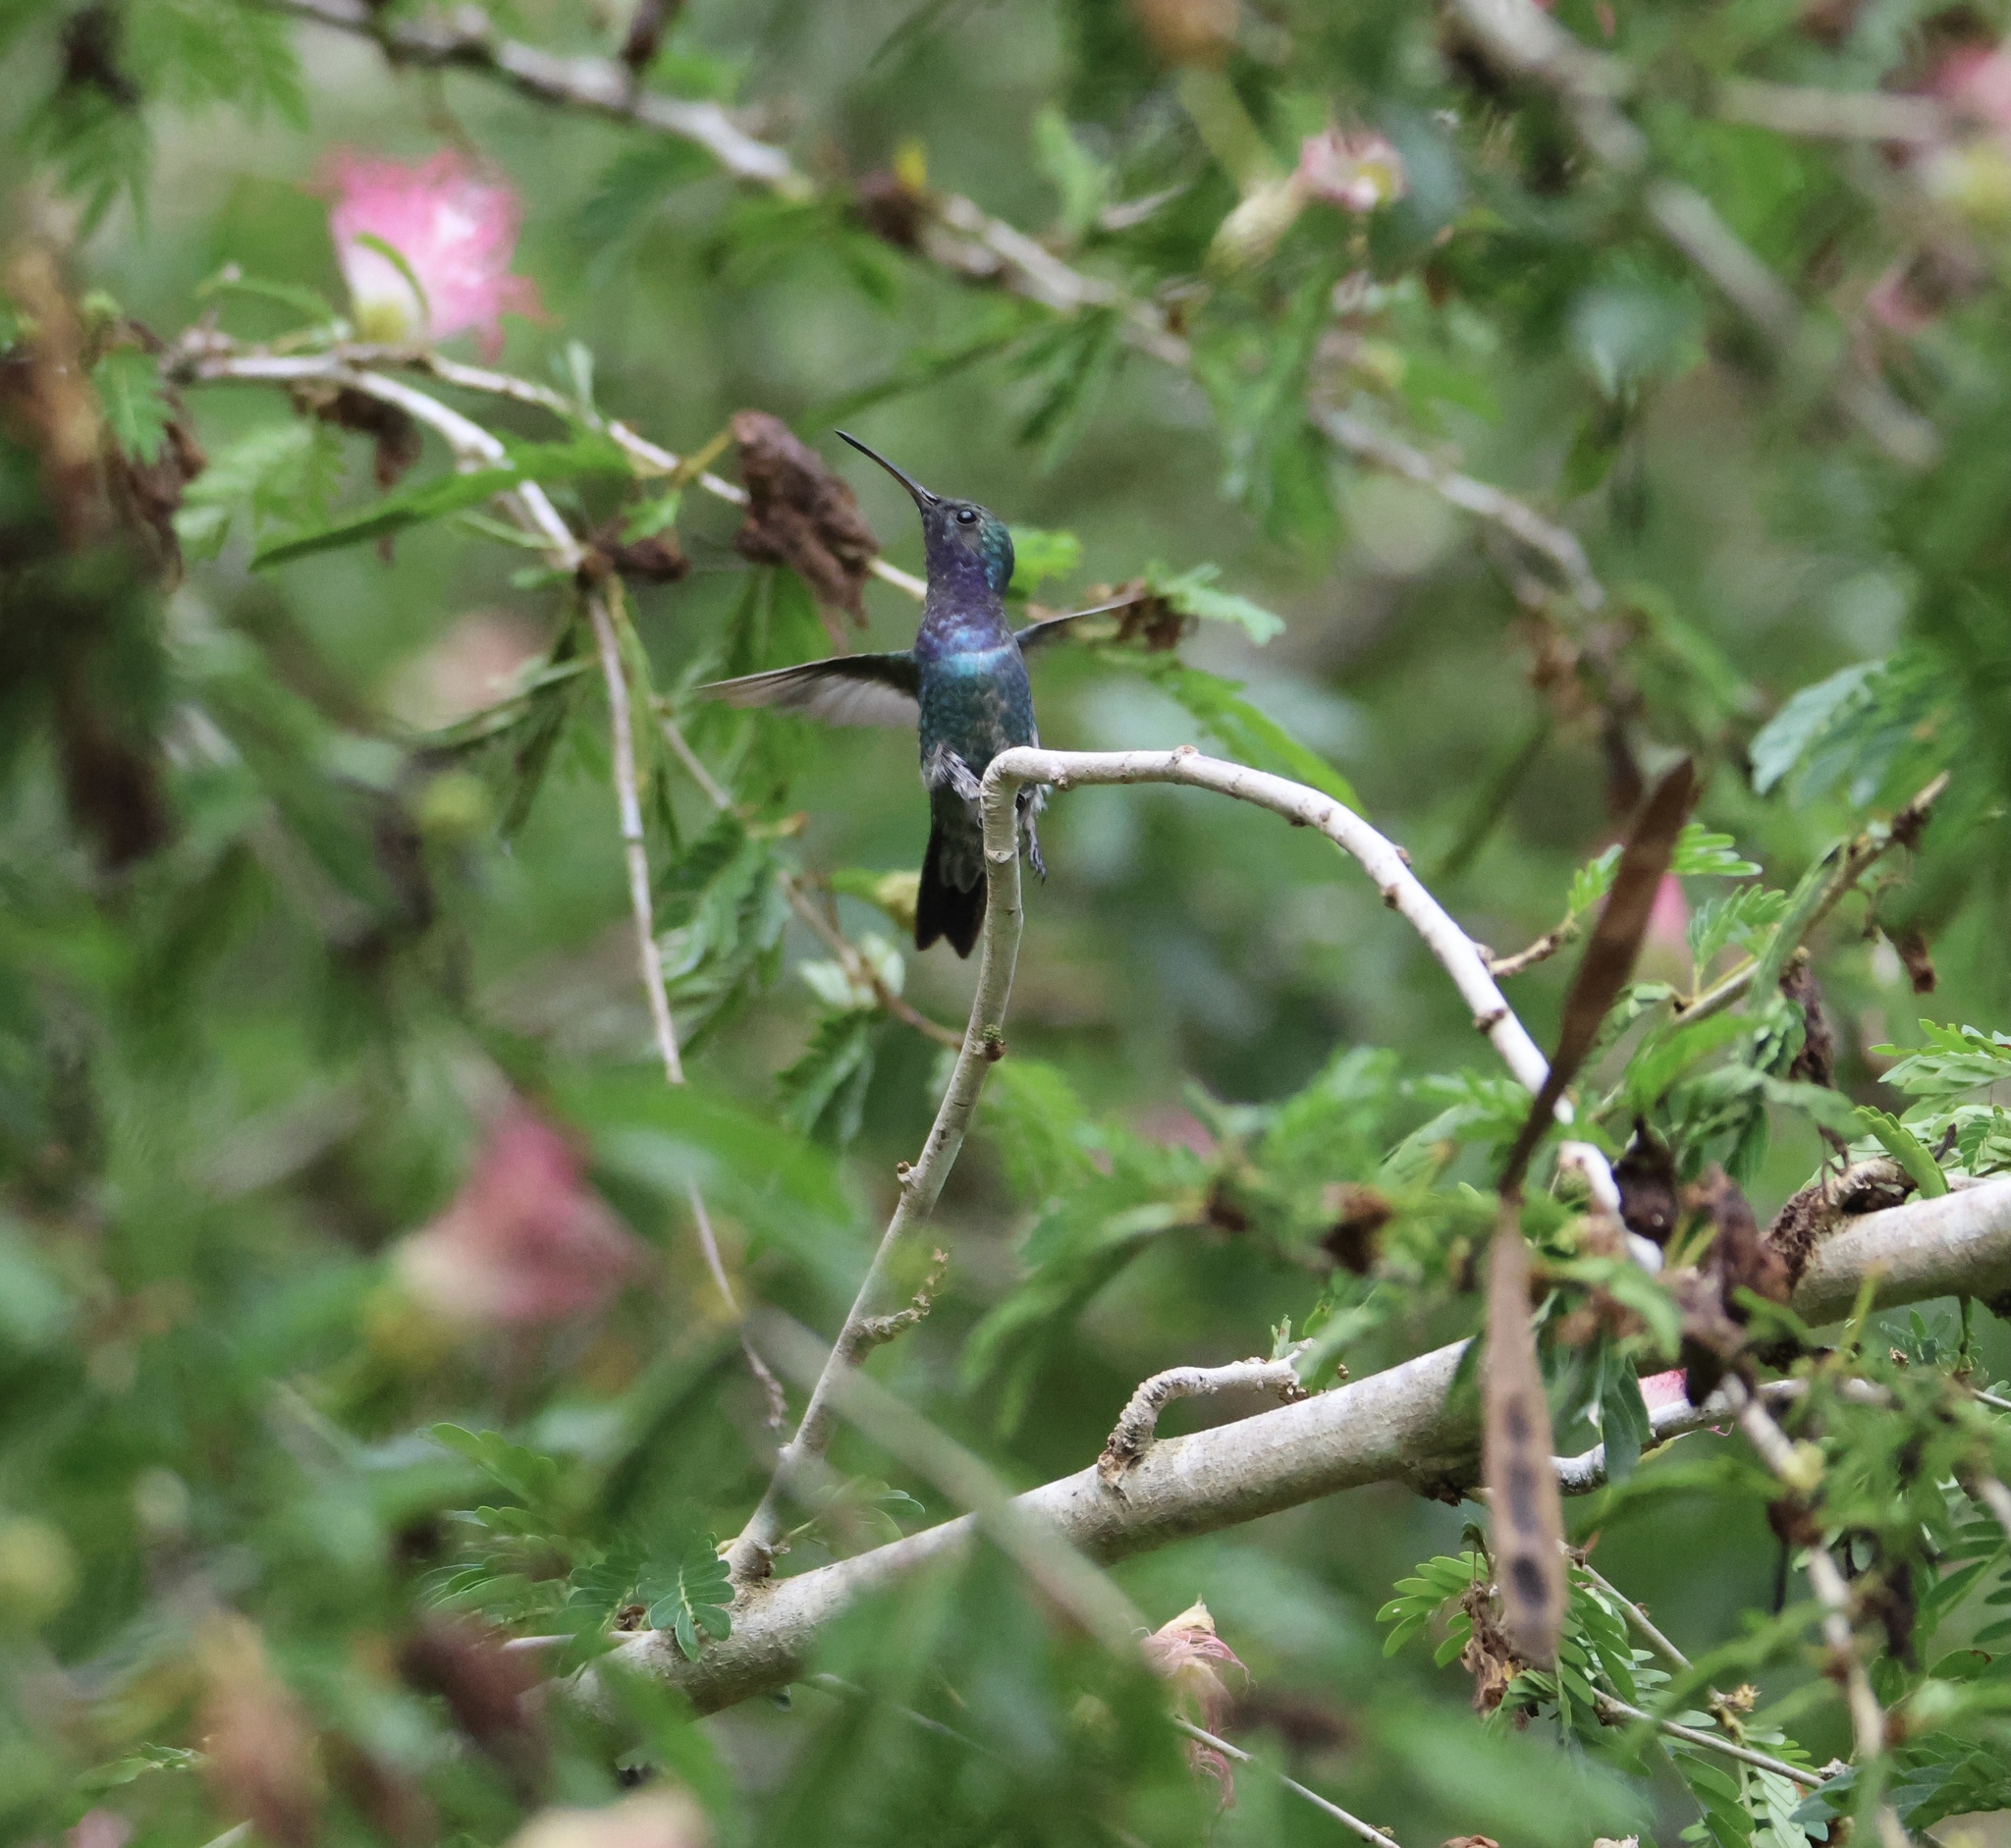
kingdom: Animalia
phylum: Chordata
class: Aves
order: Apodiformes
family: Trochilidae
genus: Chrysuronia
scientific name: Chrysuronia coeruleogularis
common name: Sapphire-throated hummingbird
